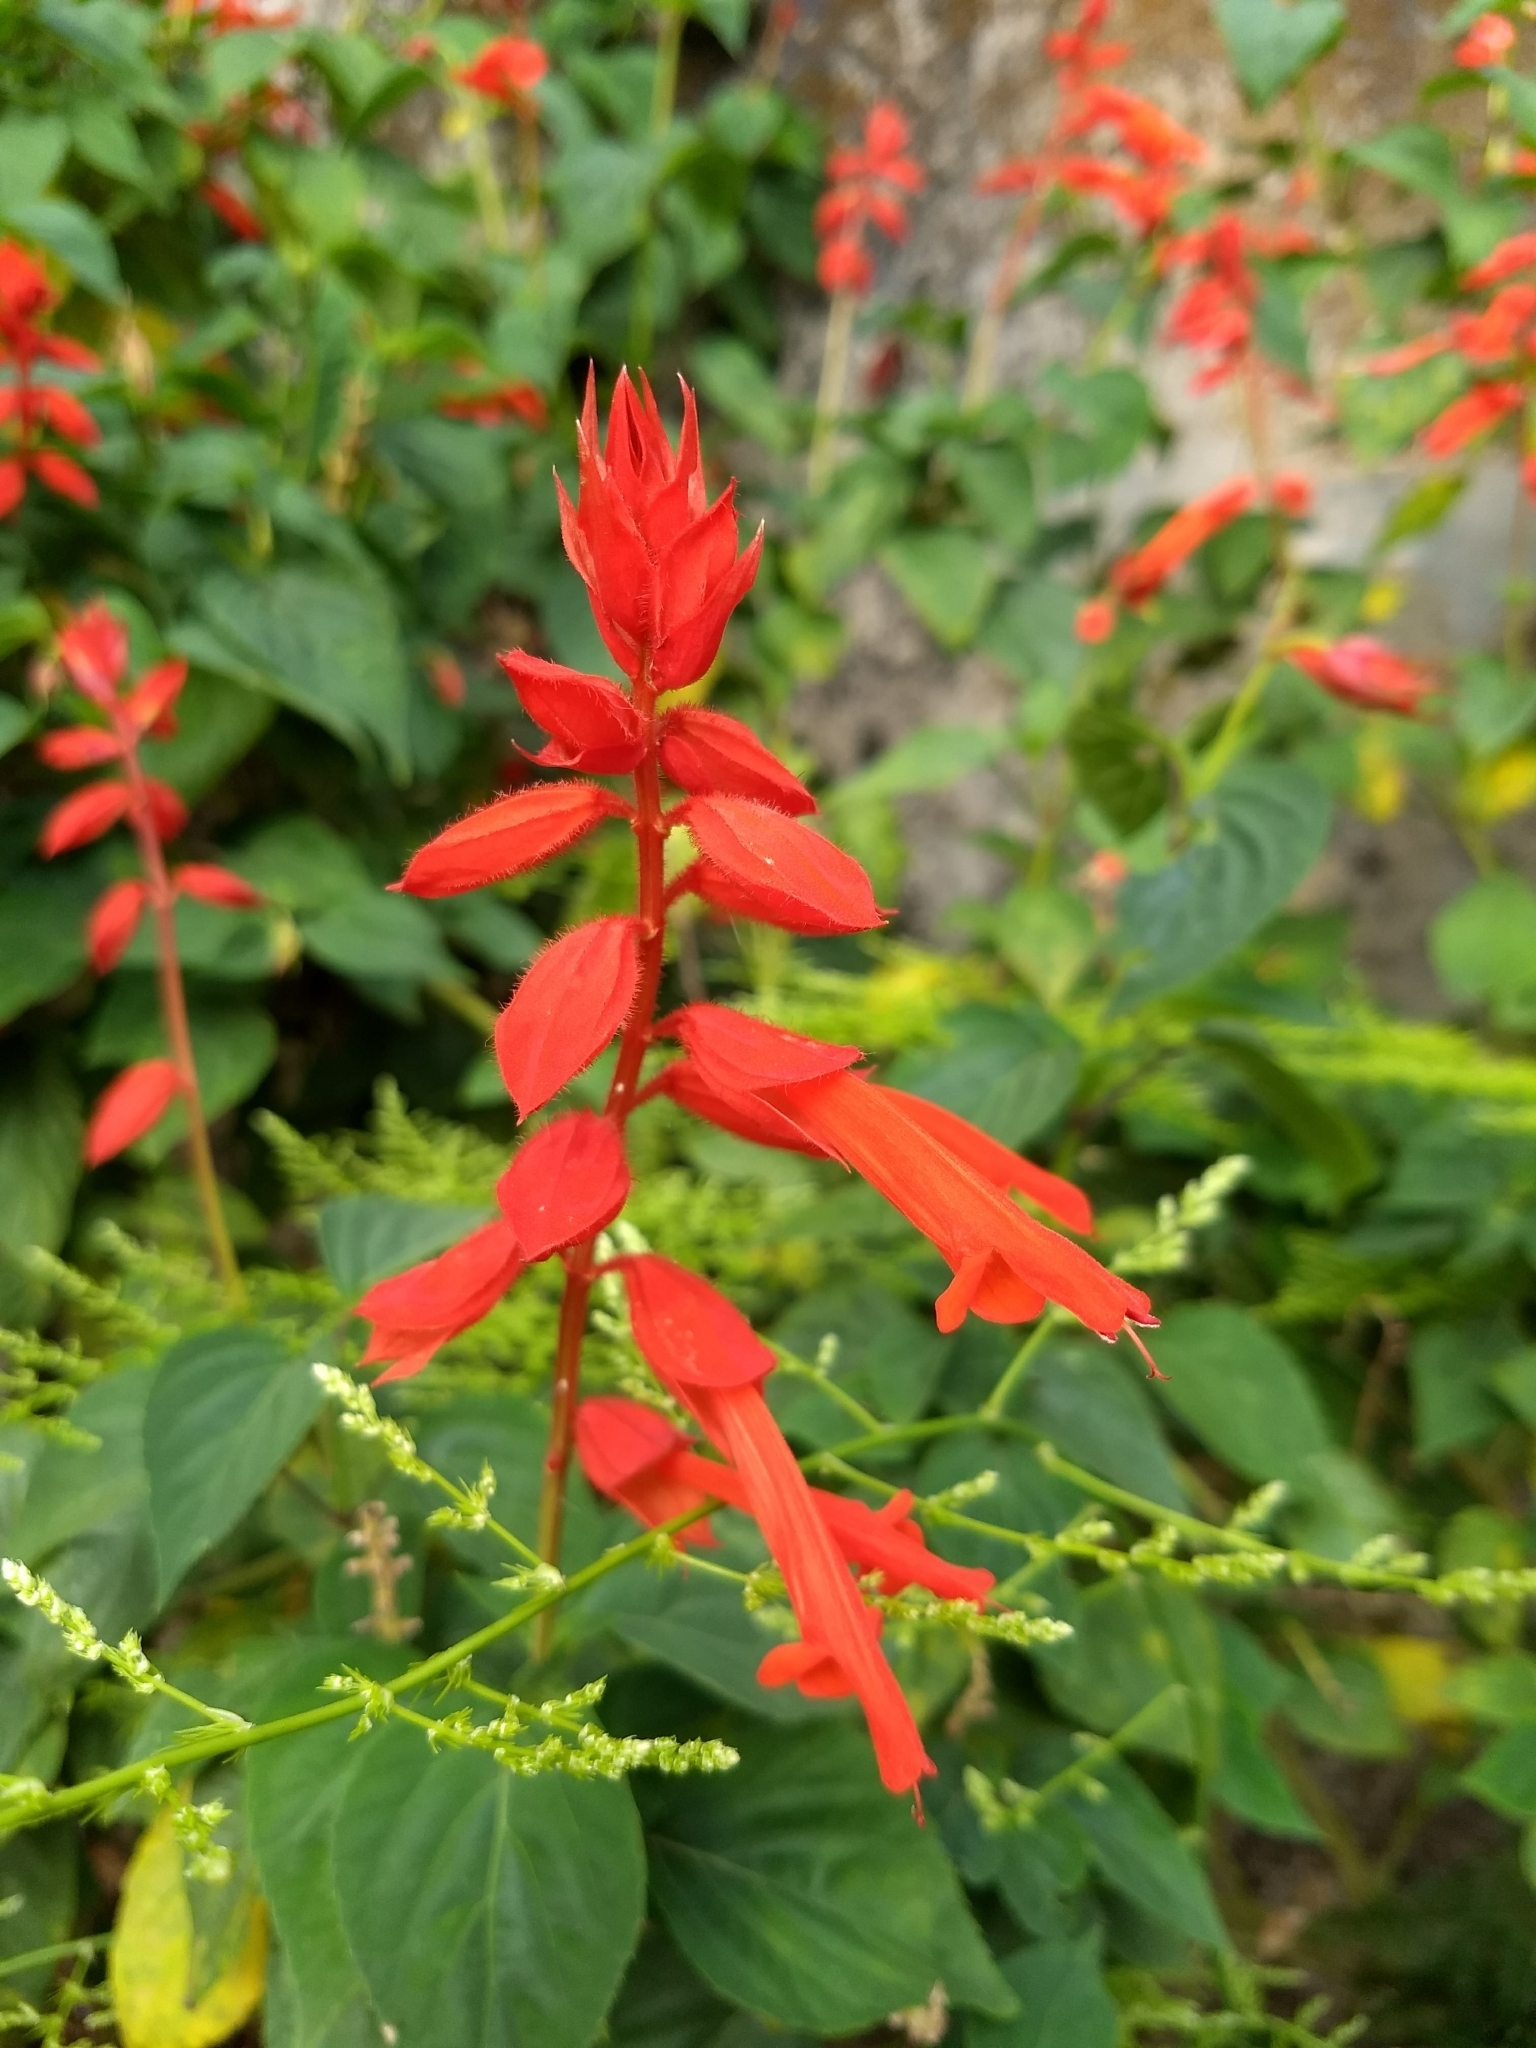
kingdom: Plantae
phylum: Tracheophyta
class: Magnoliopsida
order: Lamiales
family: Lamiaceae
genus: Salvia
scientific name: Salvia splendens
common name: Scarlet sage
